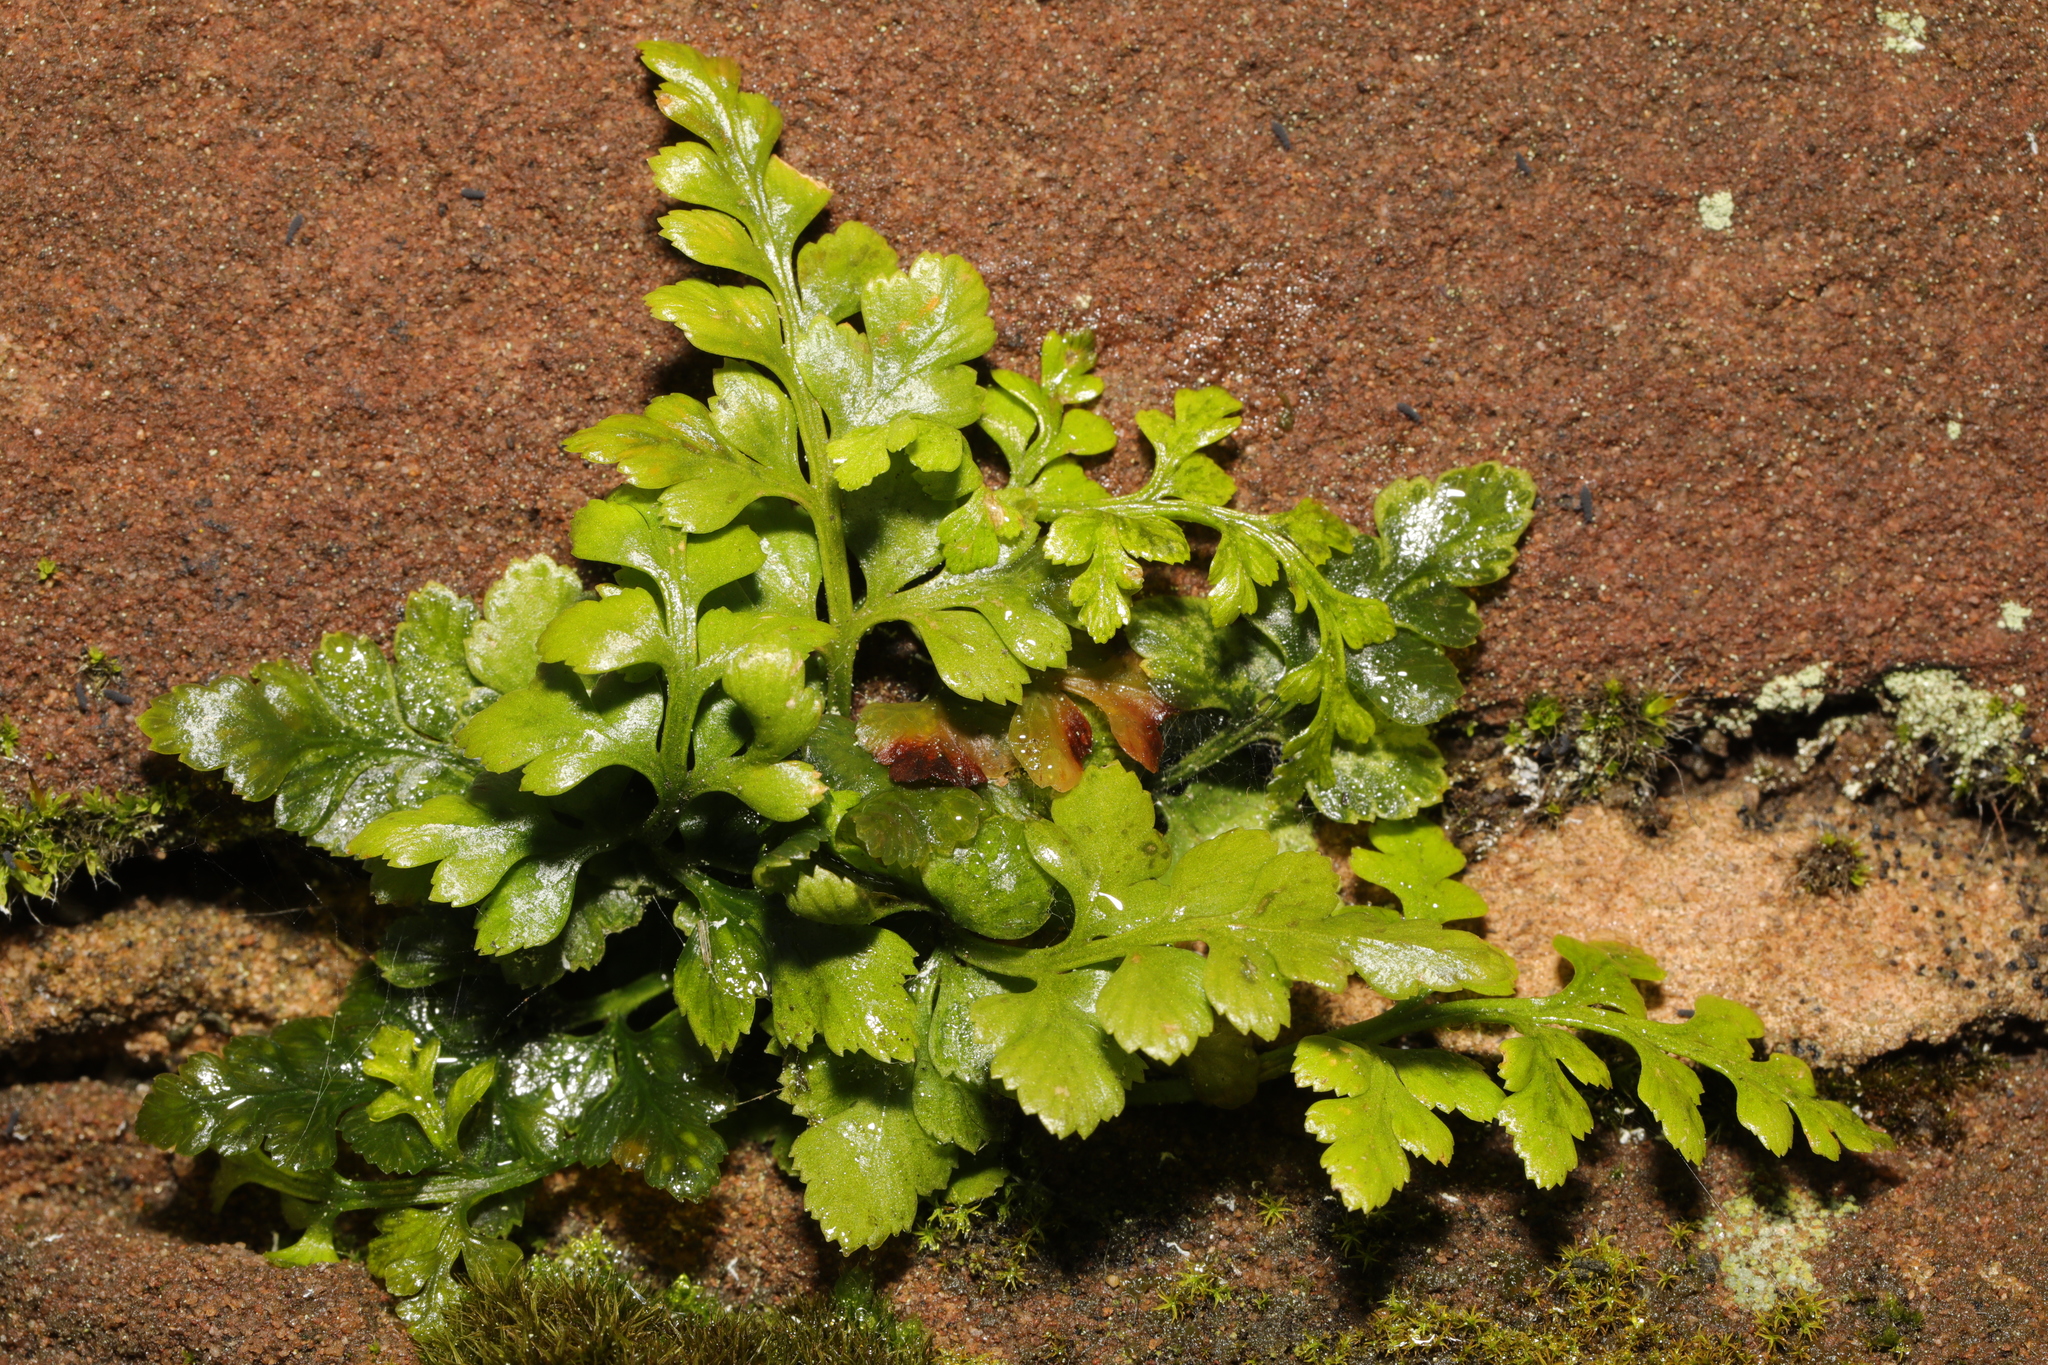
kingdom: Plantae
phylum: Tracheophyta
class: Polypodiopsida
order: Polypodiales
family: Aspleniaceae
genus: Asplenium
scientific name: Asplenium adiantum-nigrum
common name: Black spleenwort
